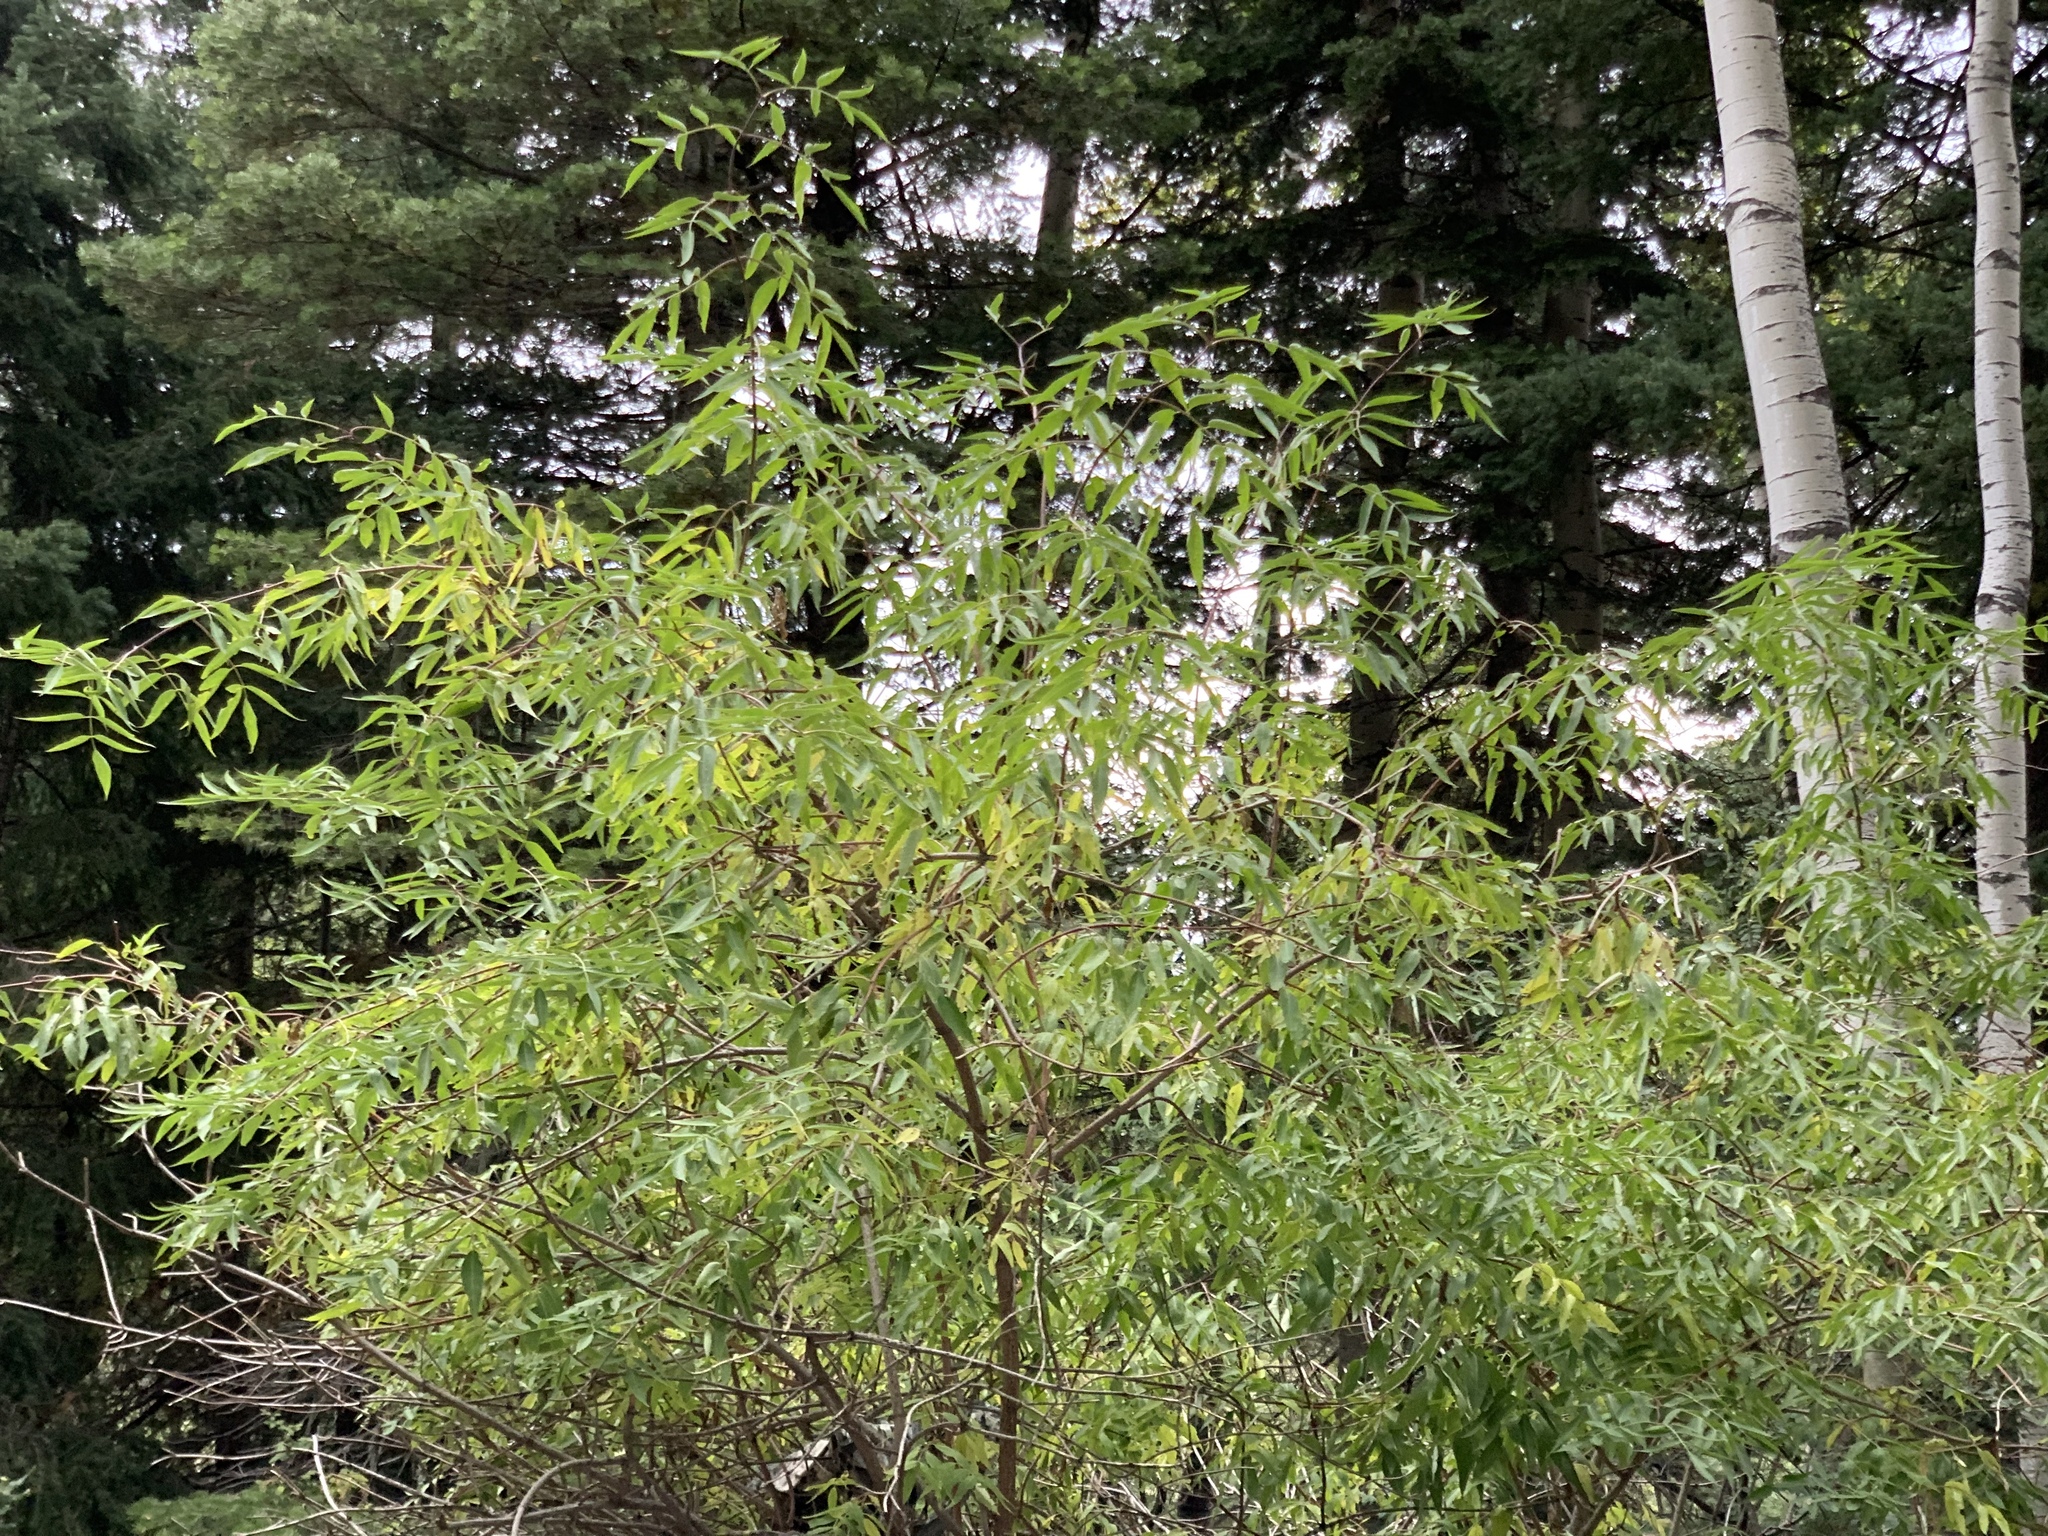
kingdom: Plantae
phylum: Tracheophyta
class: Magnoliopsida
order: Dipsacales
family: Viburnaceae
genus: Sambucus
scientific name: Sambucus cerulea
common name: Blue elder
